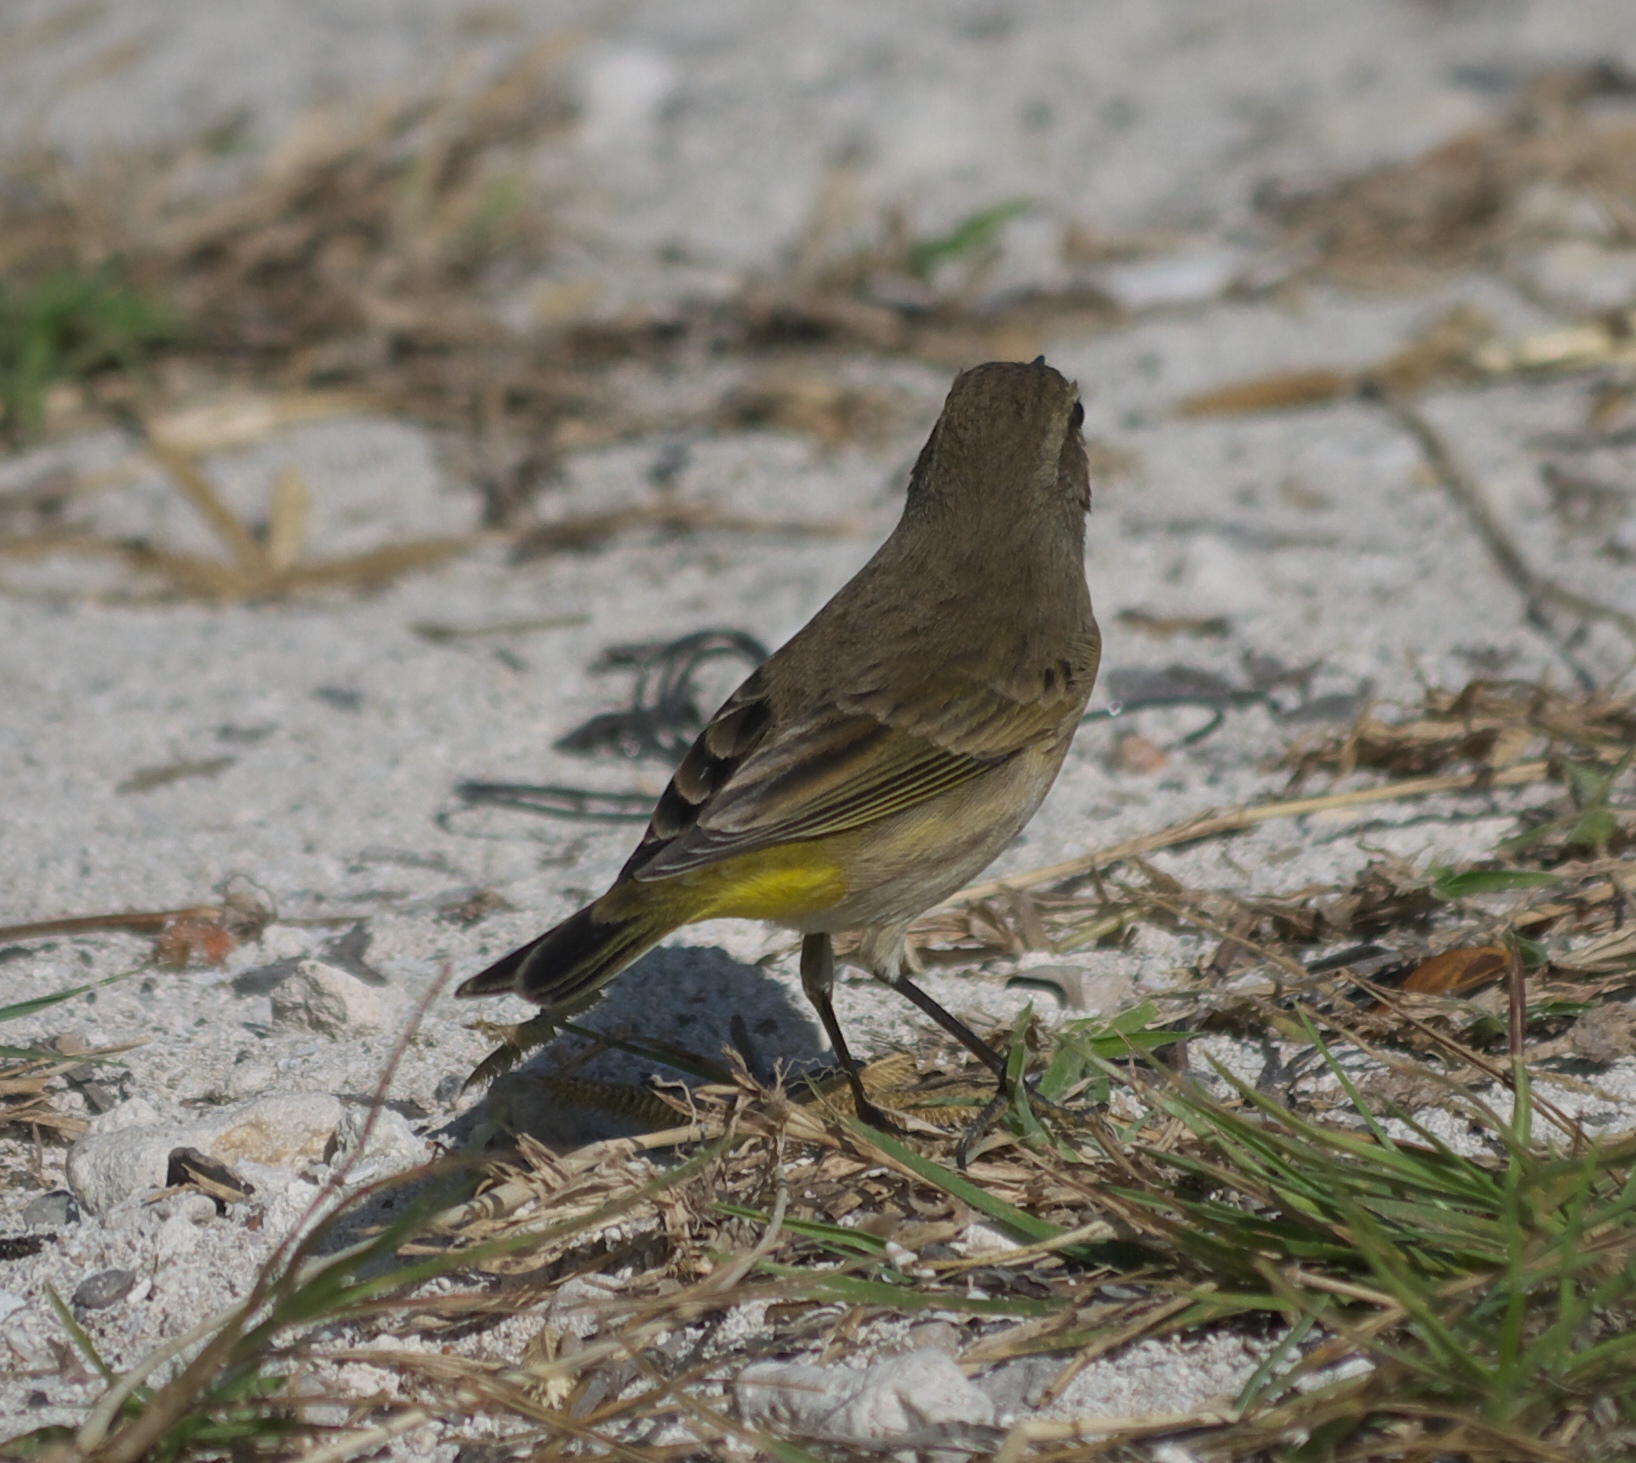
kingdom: Animalia
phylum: Chordata
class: Aves
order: Passeriformes
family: Parulidae
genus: Setophaga
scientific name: Setophaga palmarum
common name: Palm warbler
